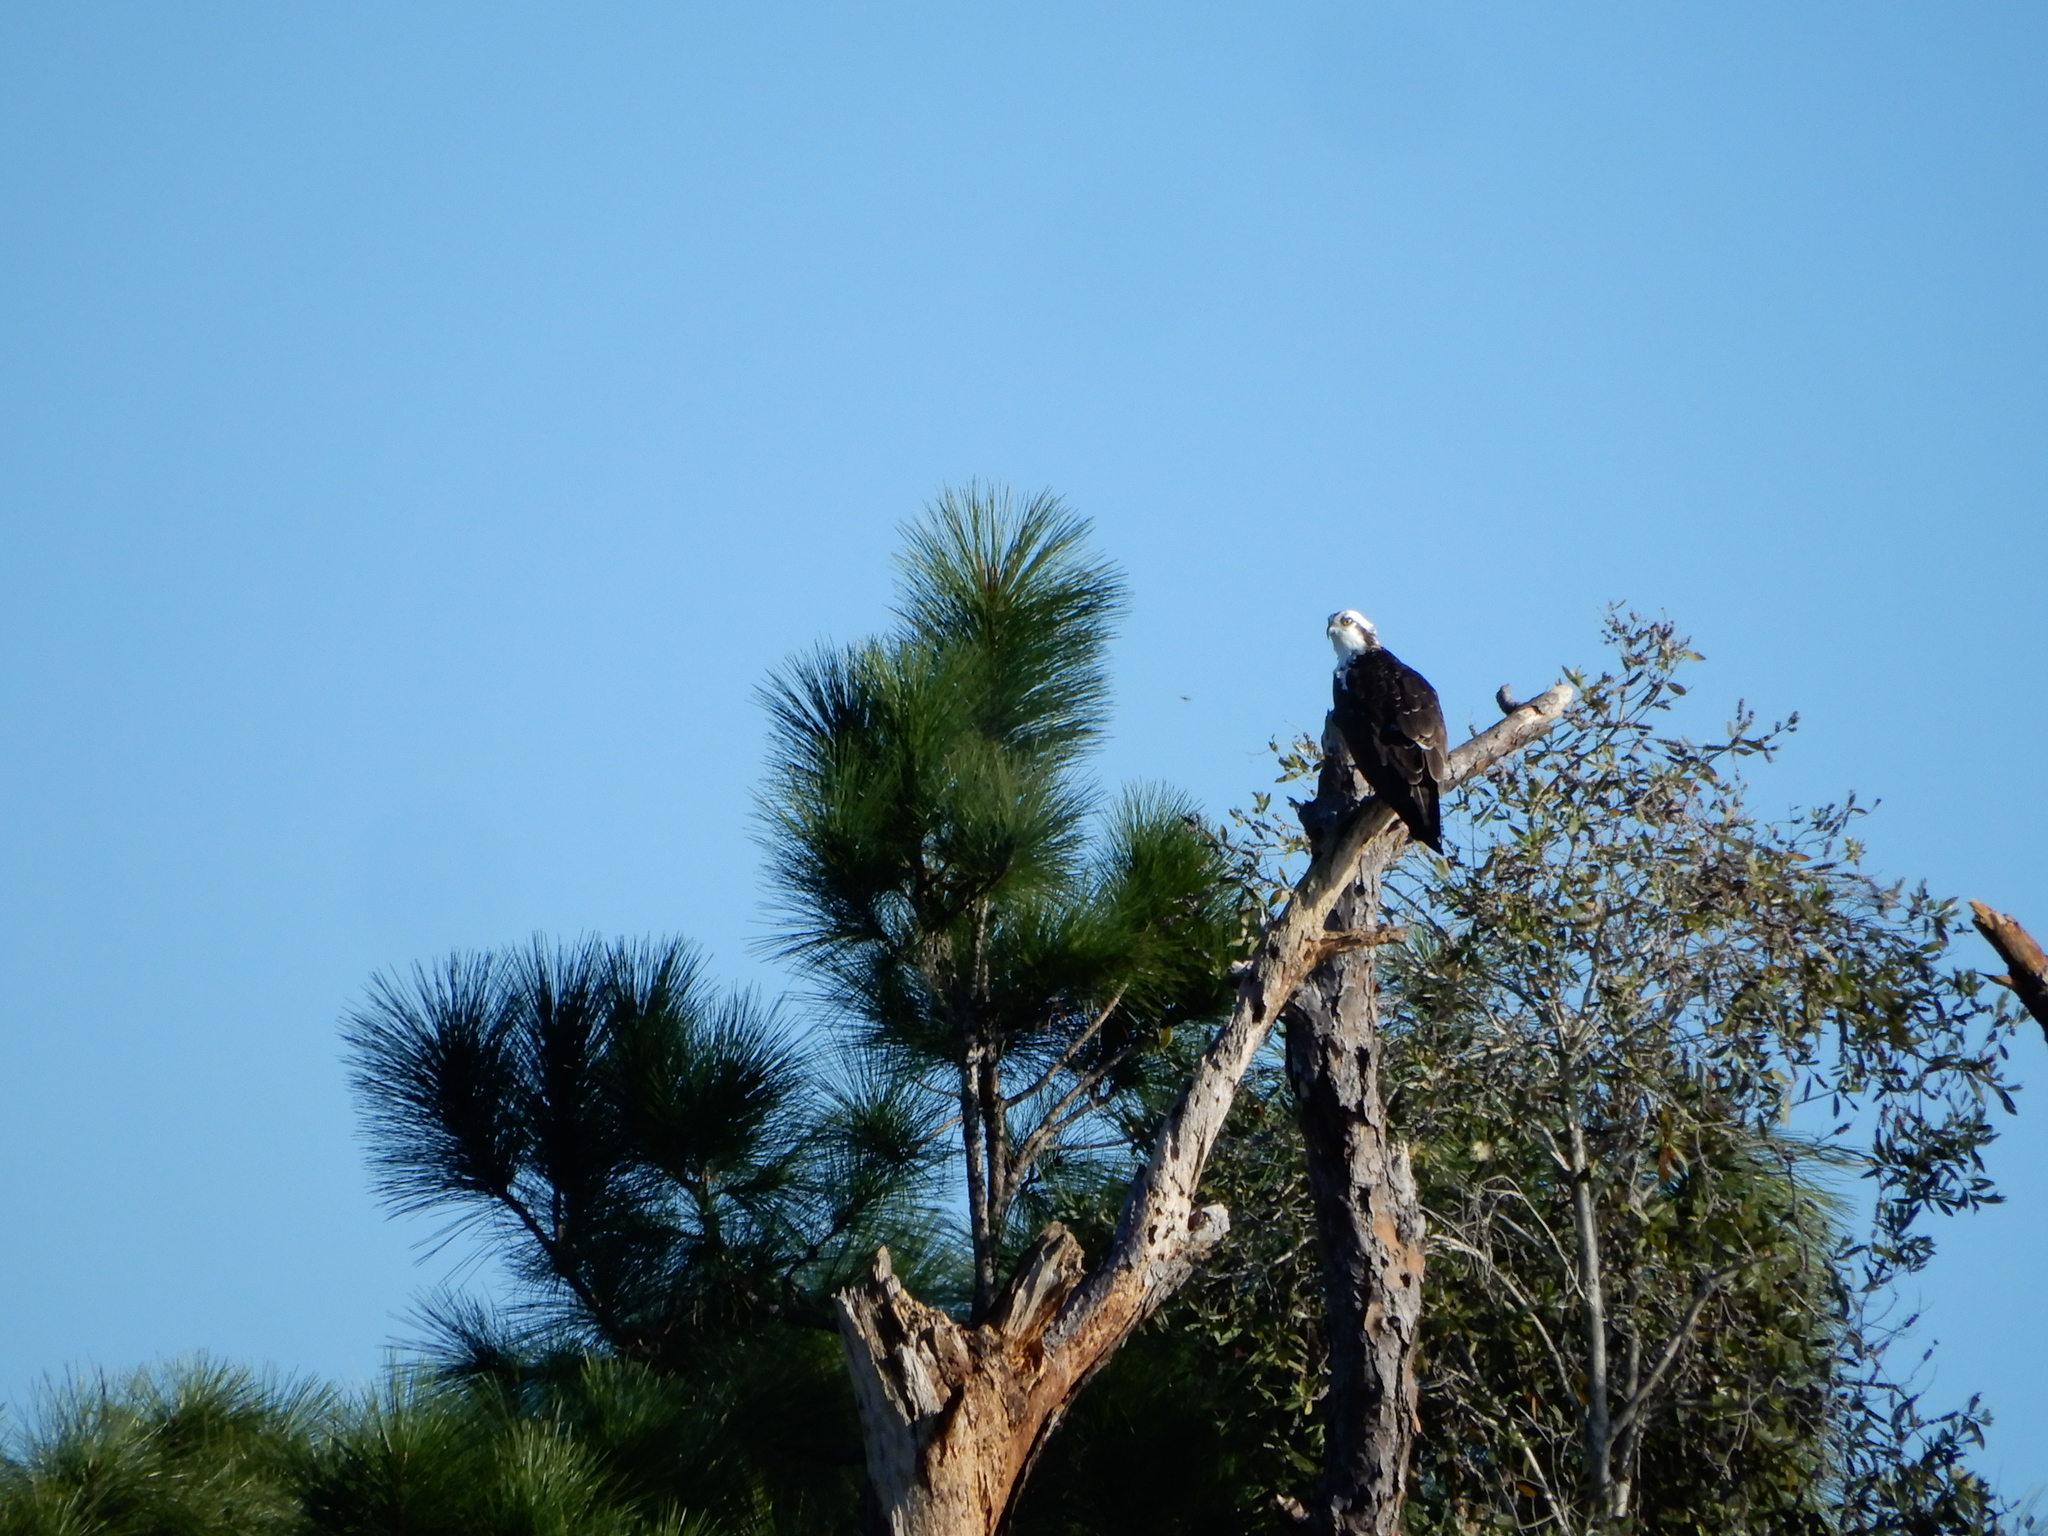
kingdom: Animalia
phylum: Chordata
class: Aves
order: Accipitriformes
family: Pandionidae
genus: Pandion
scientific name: Pandion haliaetus
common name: Osprey
